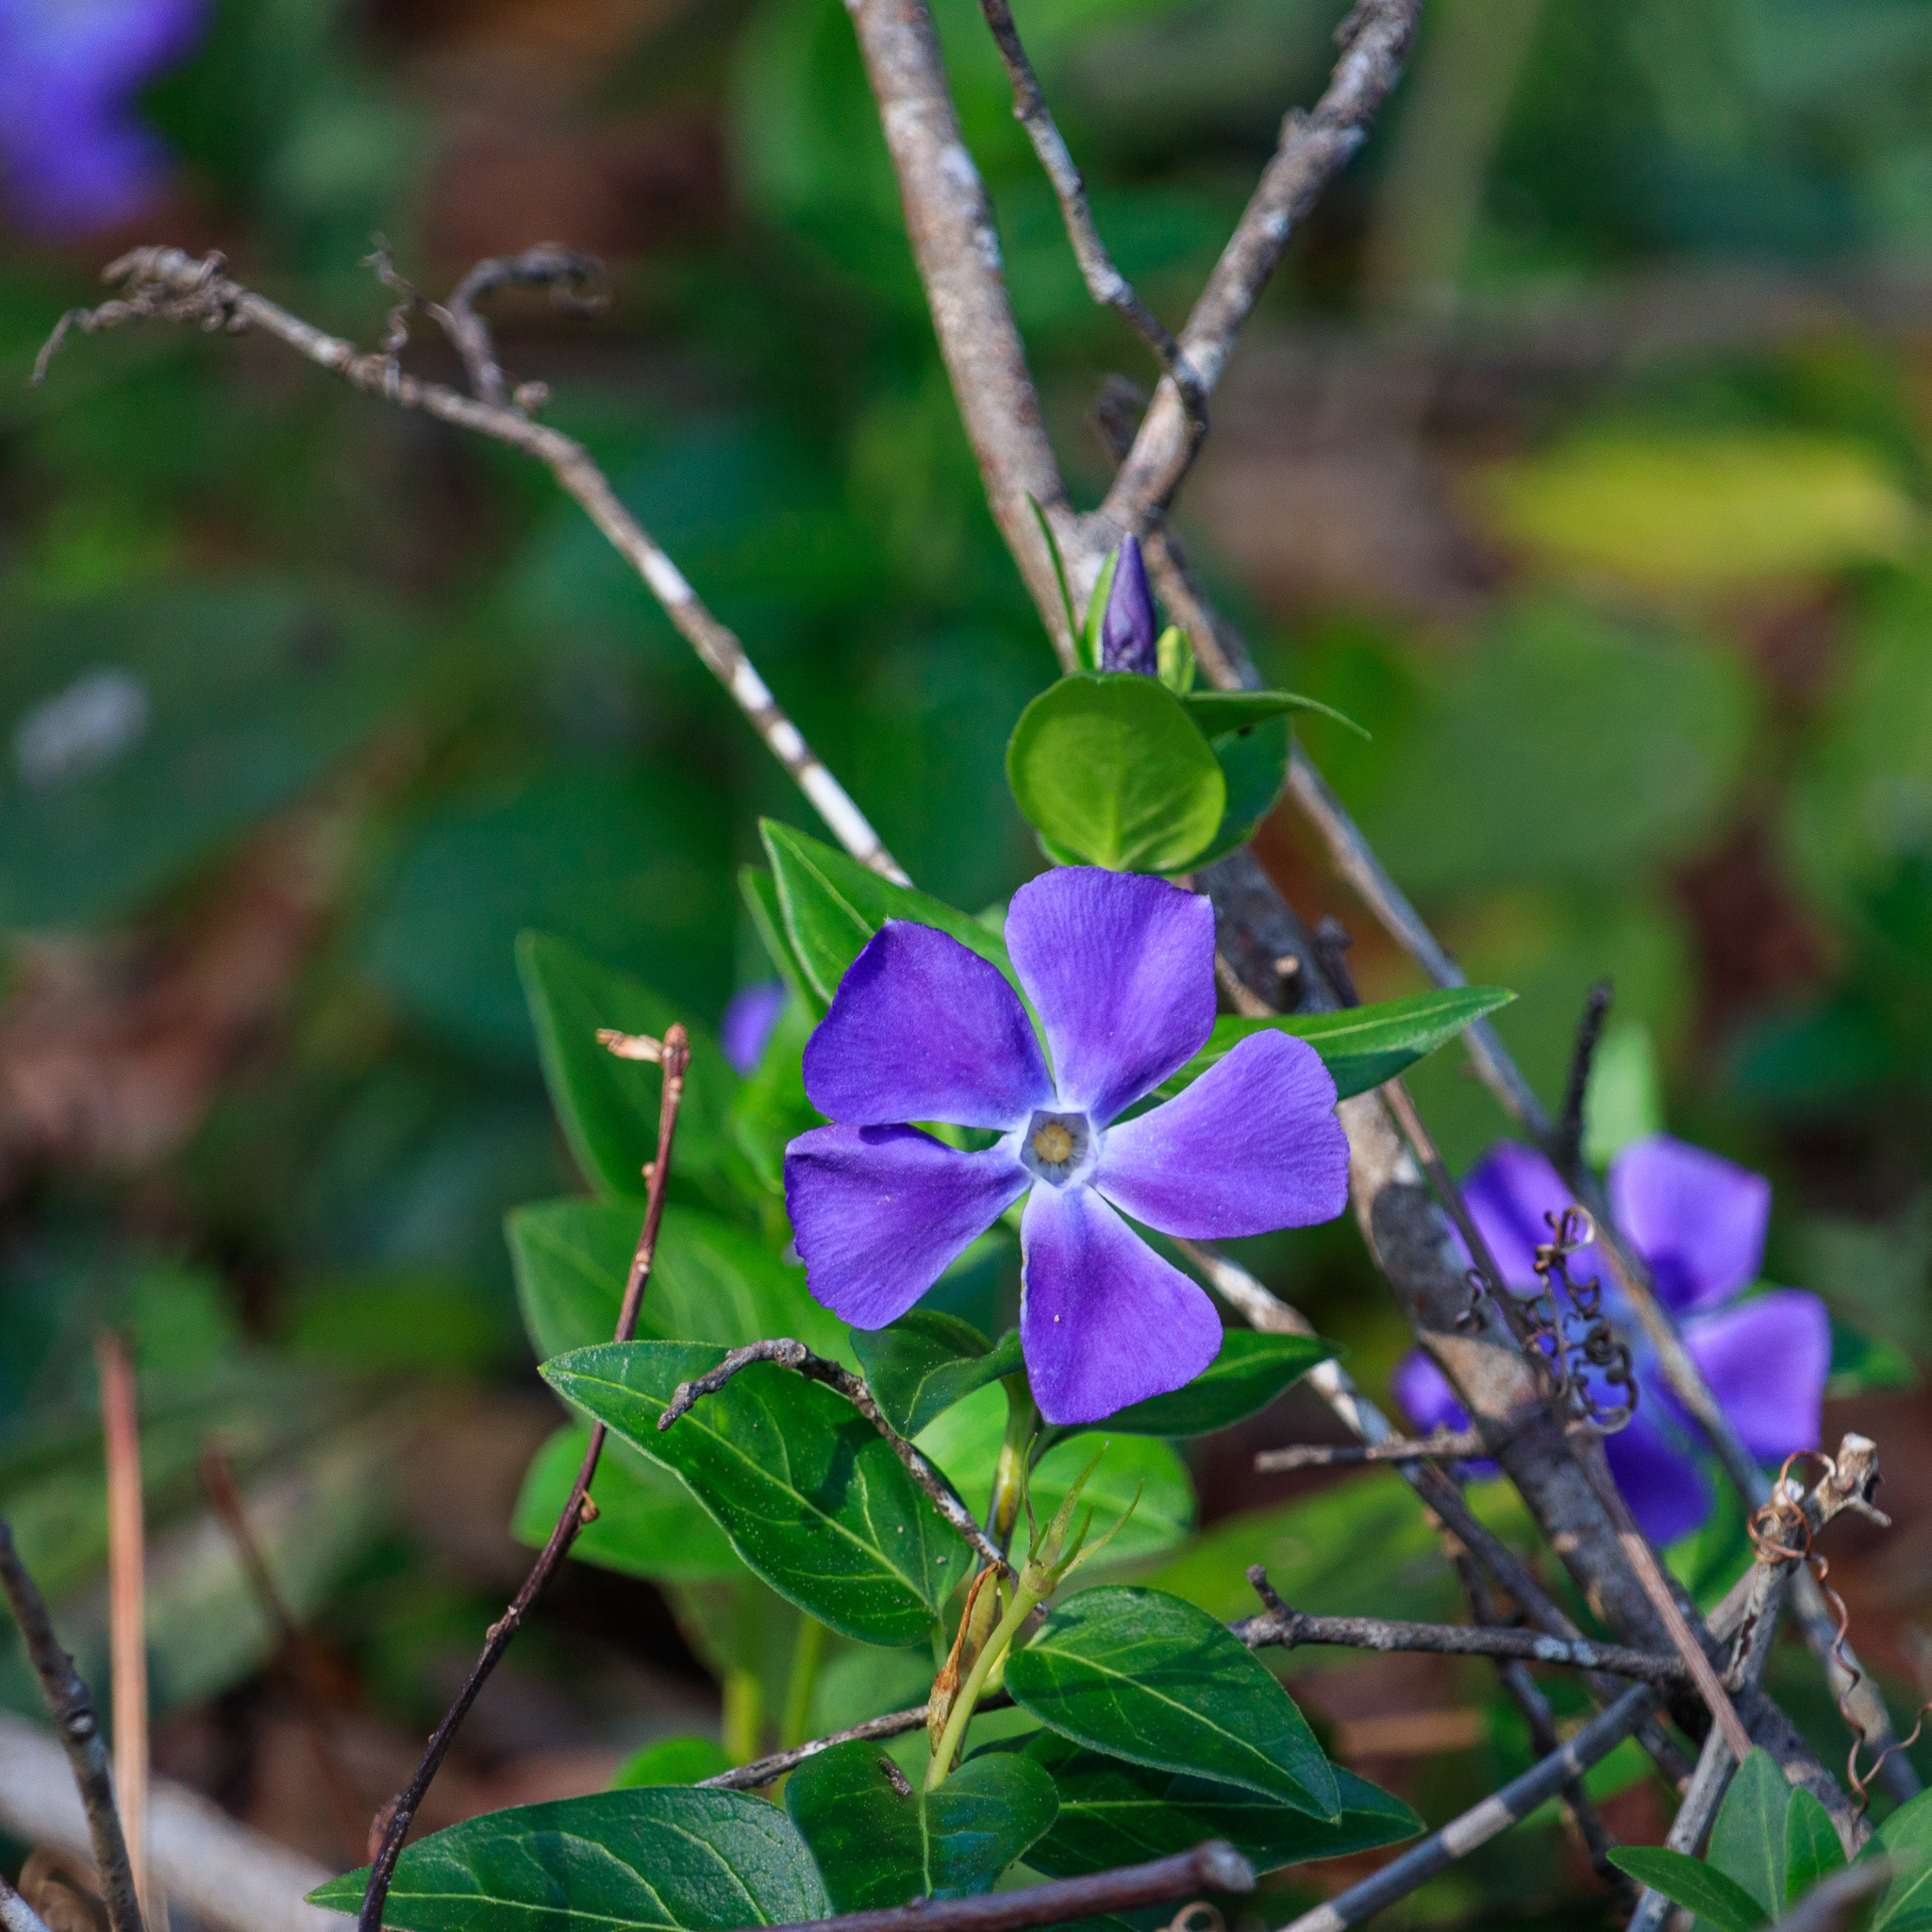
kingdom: Plantae
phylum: Tracheophyta
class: Magnoliopsida
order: Gentianales
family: Apocynaceae
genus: Vinca
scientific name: Vinca major
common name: Greater periwinkle
